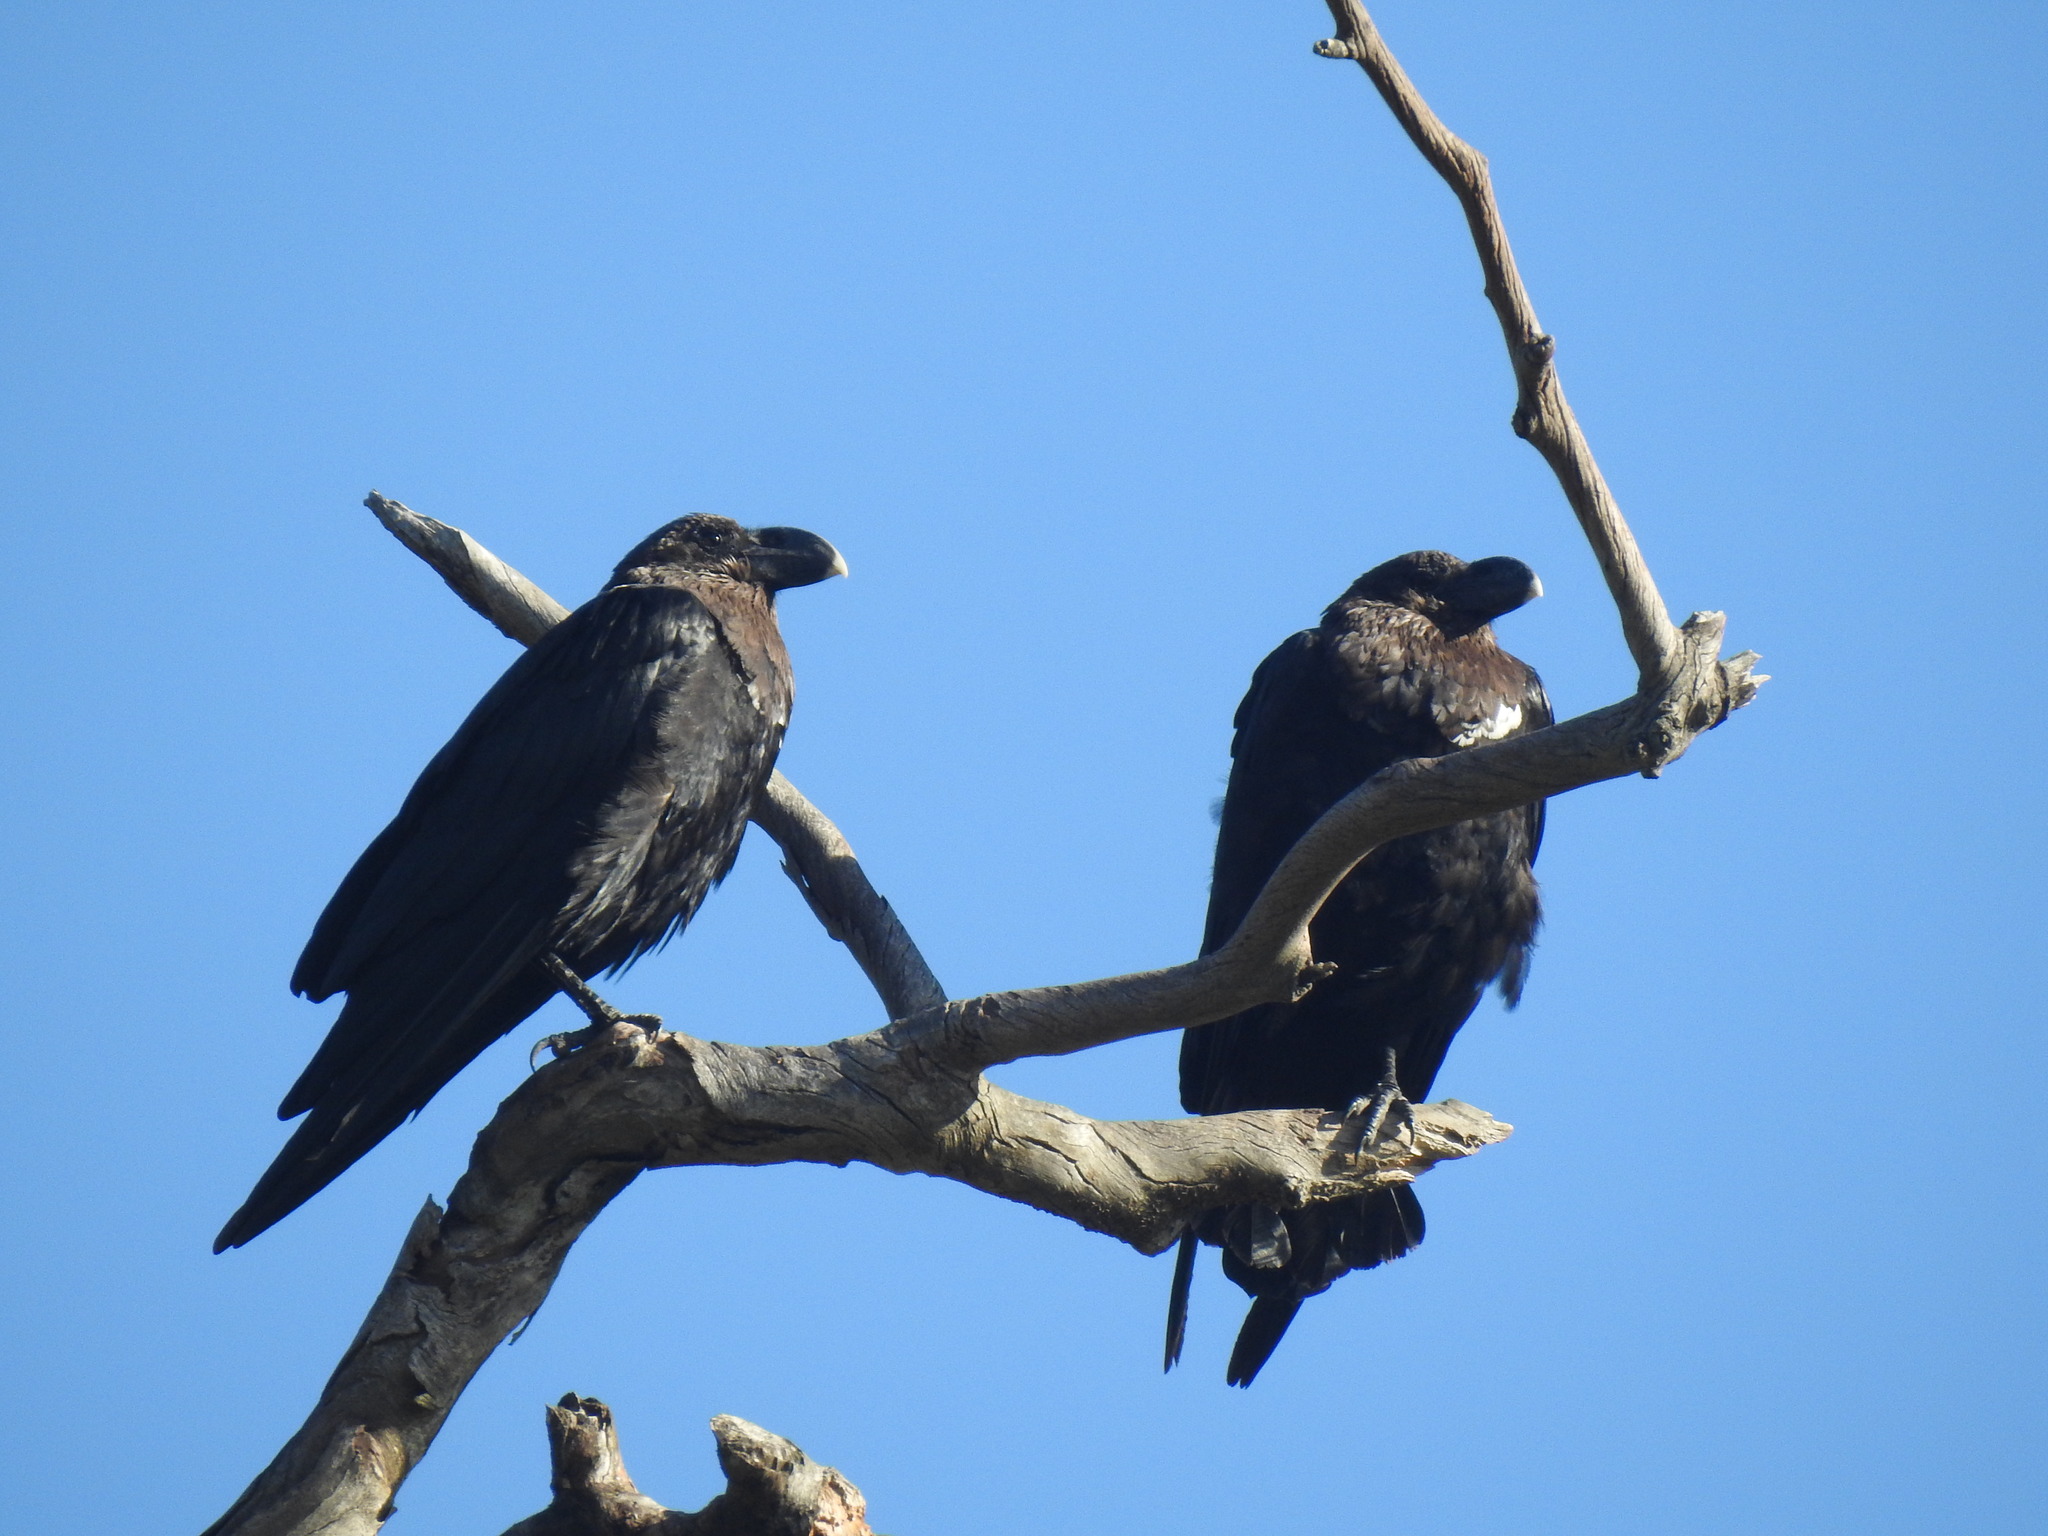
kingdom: Animalia
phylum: Chordata
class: Aves
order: Passeriformes
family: Corvidae
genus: Corvus
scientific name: Corvus albicollis
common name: White-necked raven
